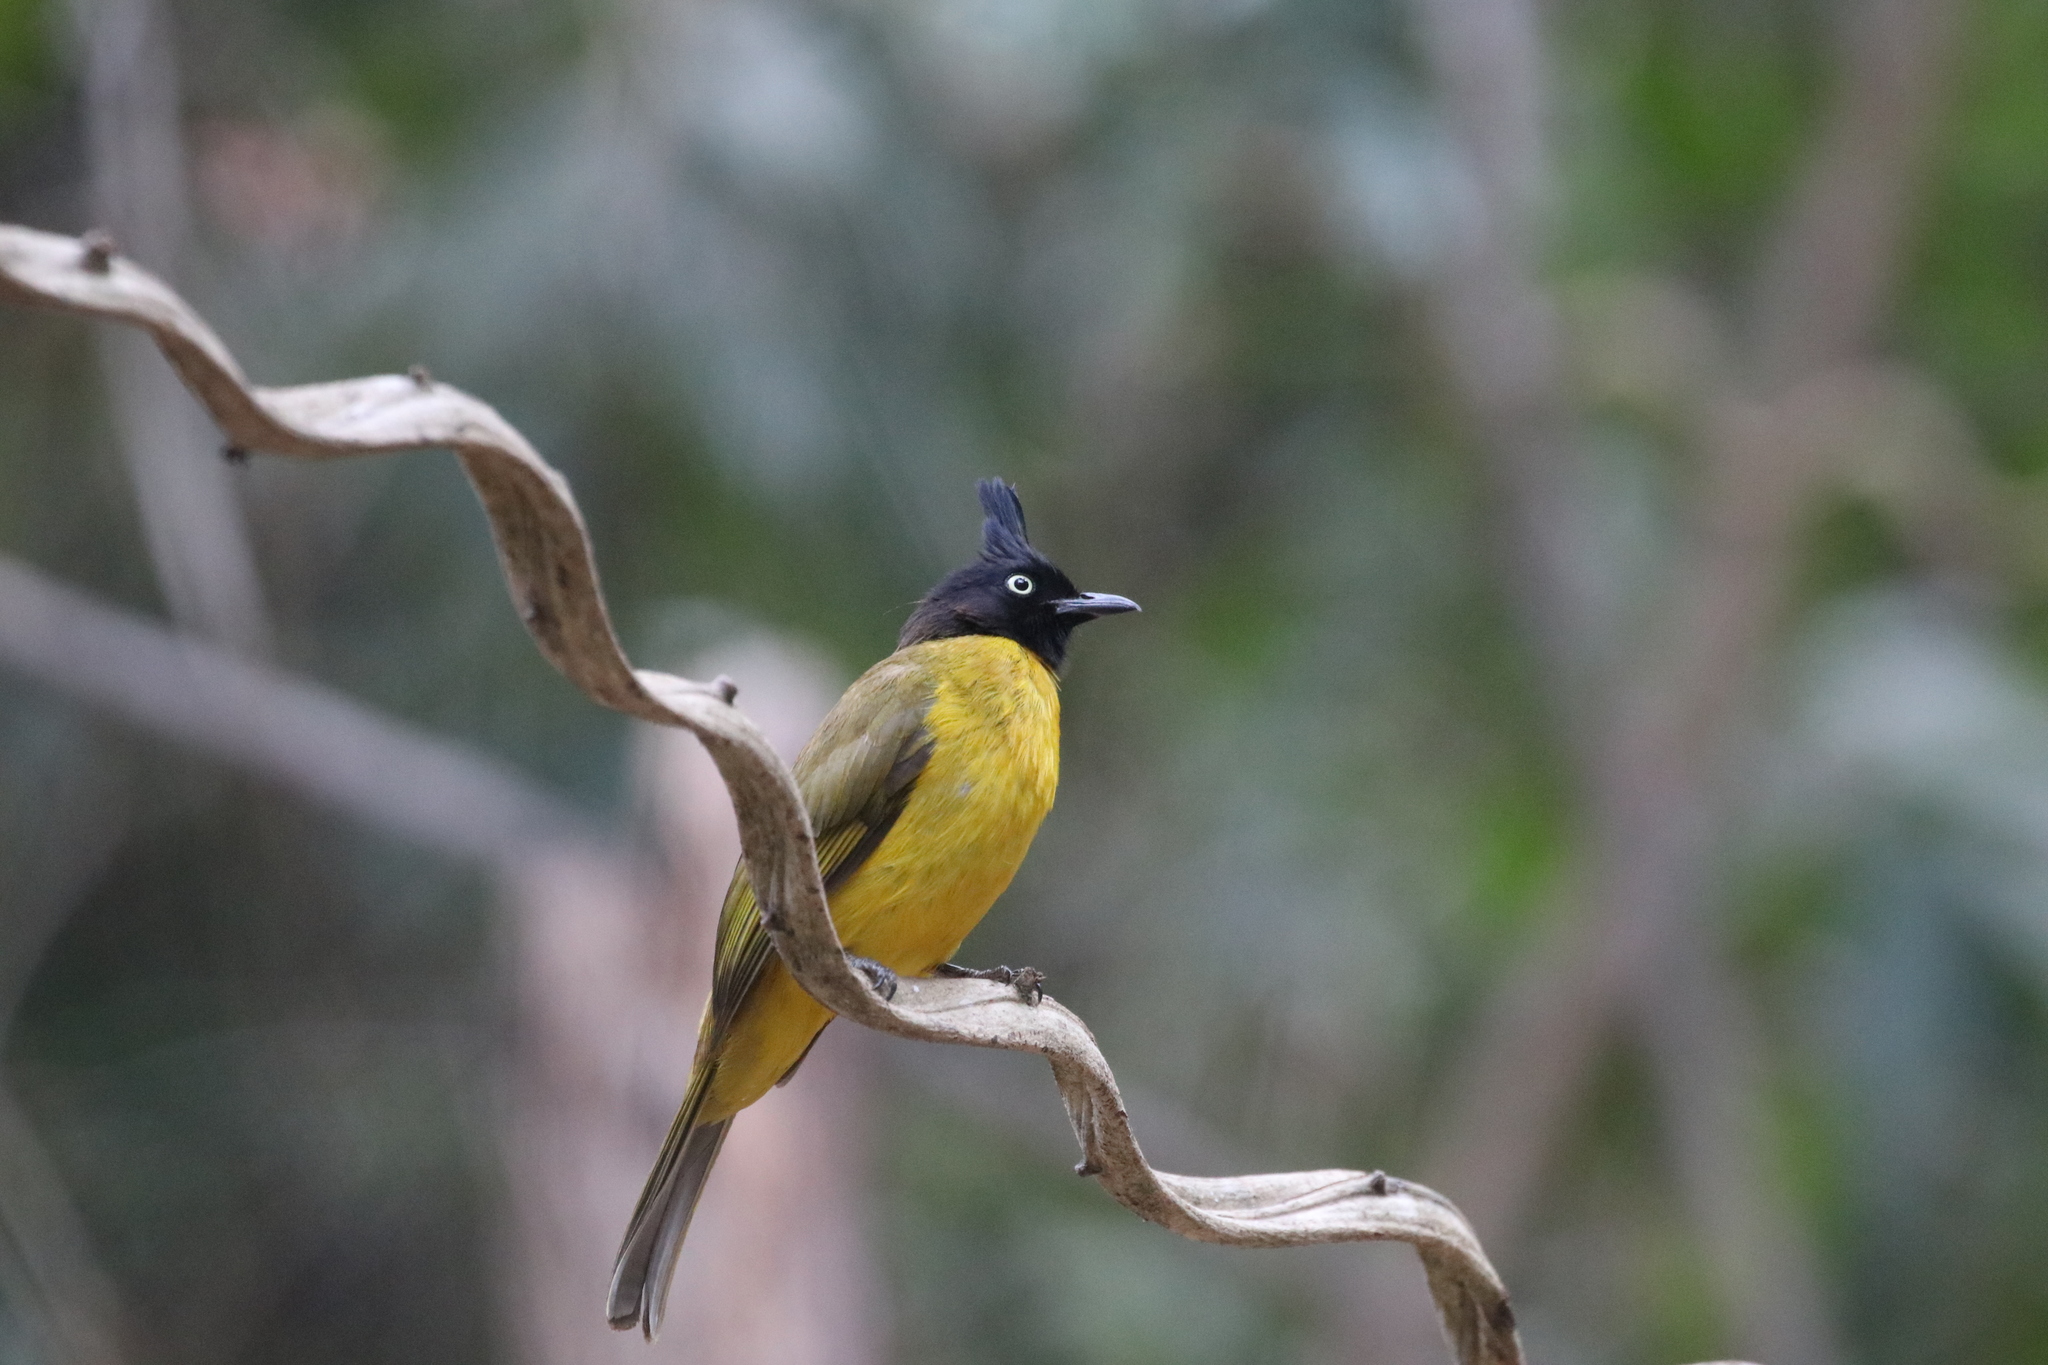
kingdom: Animalia
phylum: Chordata
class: Aves
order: Passeriformes
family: Pycnonotidae
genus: Pycnonotus
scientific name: Pycnonotus flaviventris
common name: Black-crested bulbul
